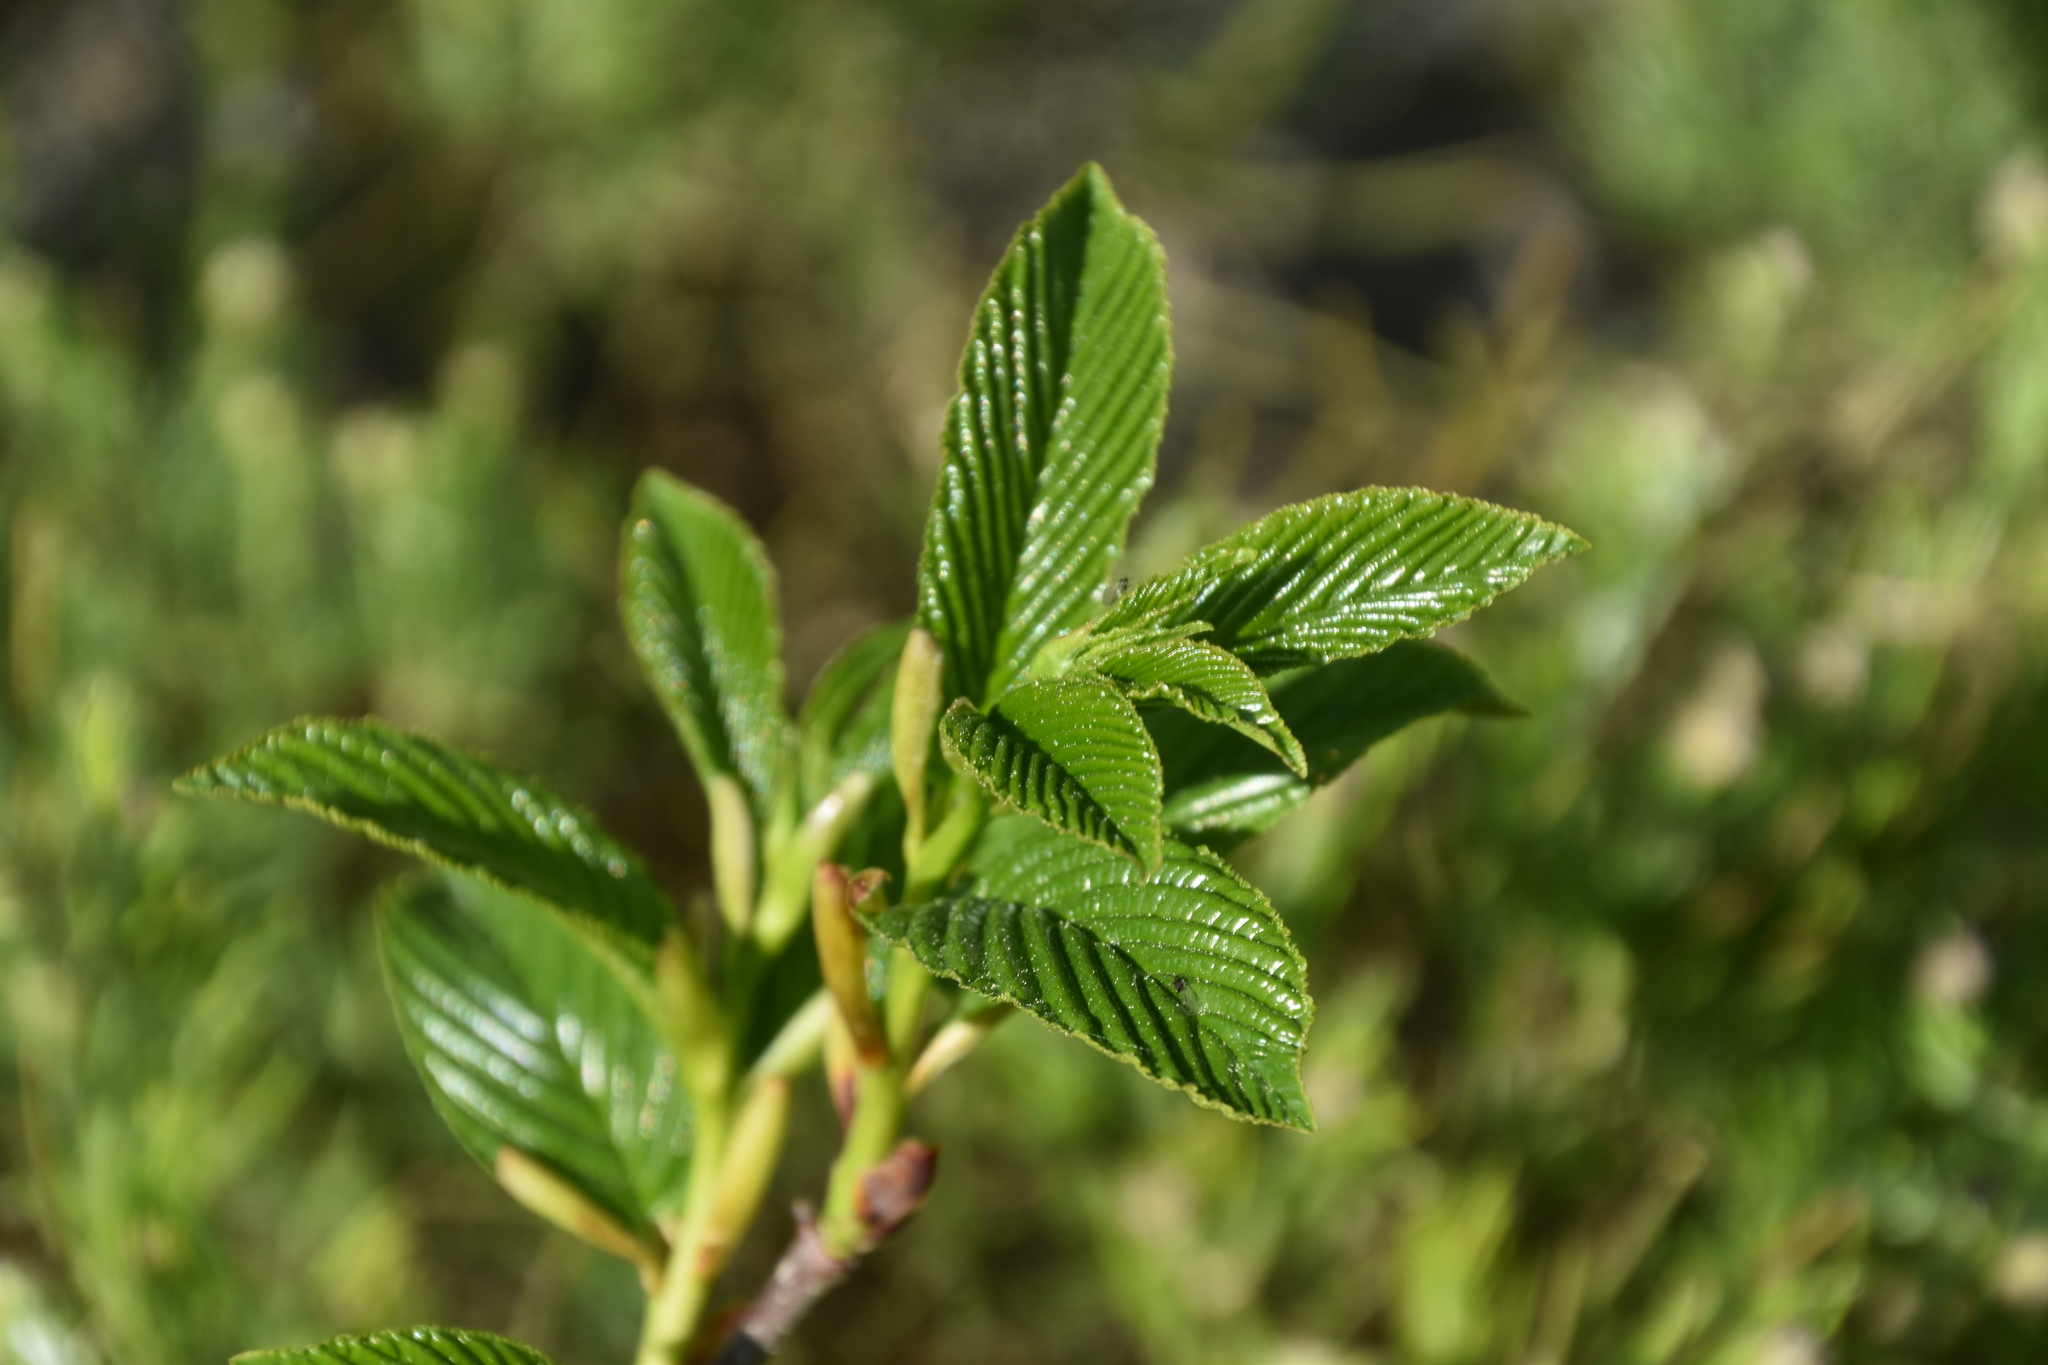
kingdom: Plantae
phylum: Tracheophyta
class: Magnoliopsida
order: Rosales
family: Rhamnaceae
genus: Atadinus
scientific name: Atadinus fallax
